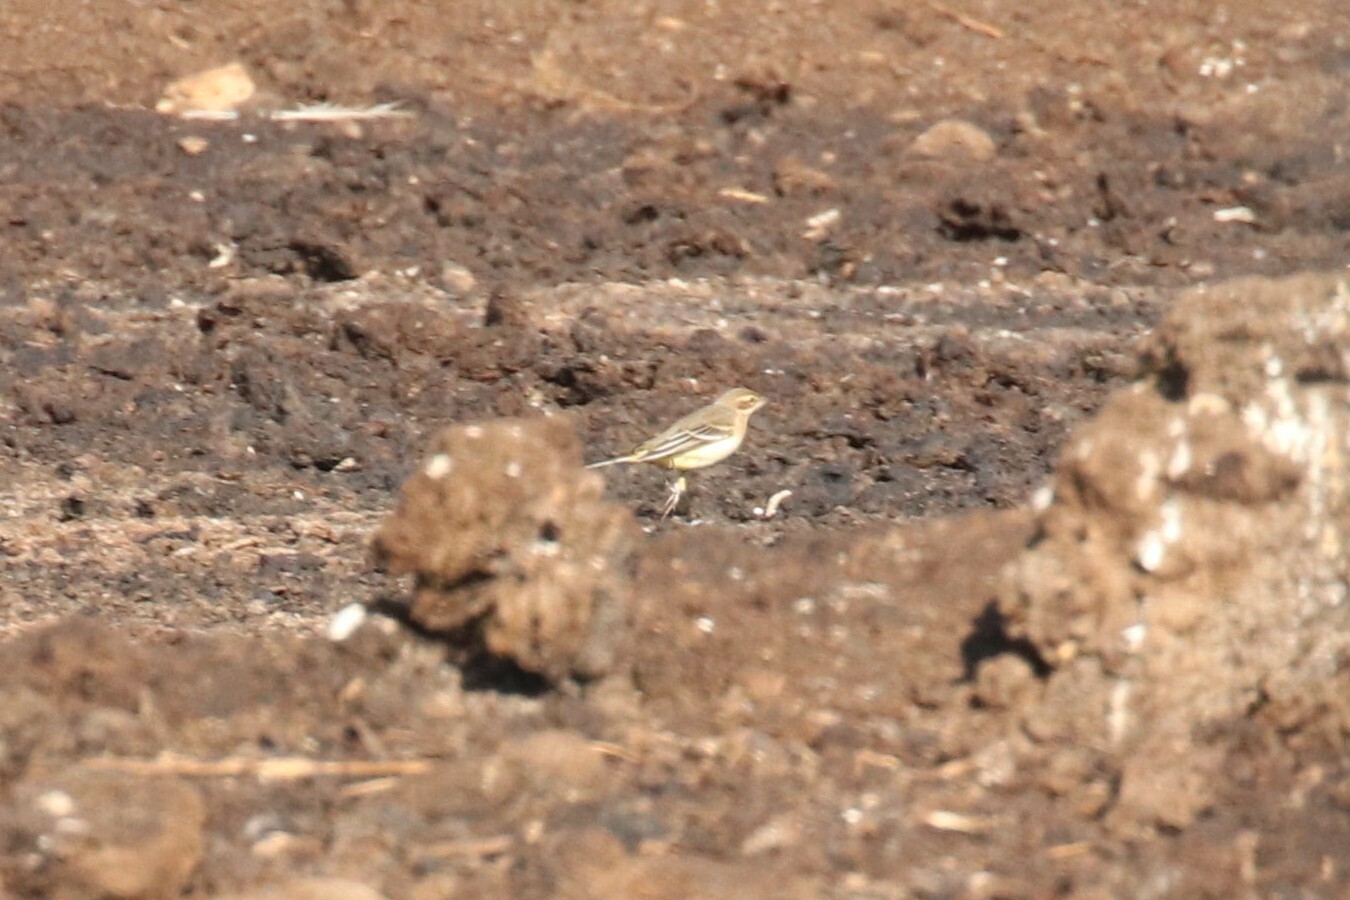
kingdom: Animalia
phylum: Chordata
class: Aves
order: Passeriformes
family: Motacillidae
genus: Motacilla
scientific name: Motacilla flava
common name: Western yellow wagtail
